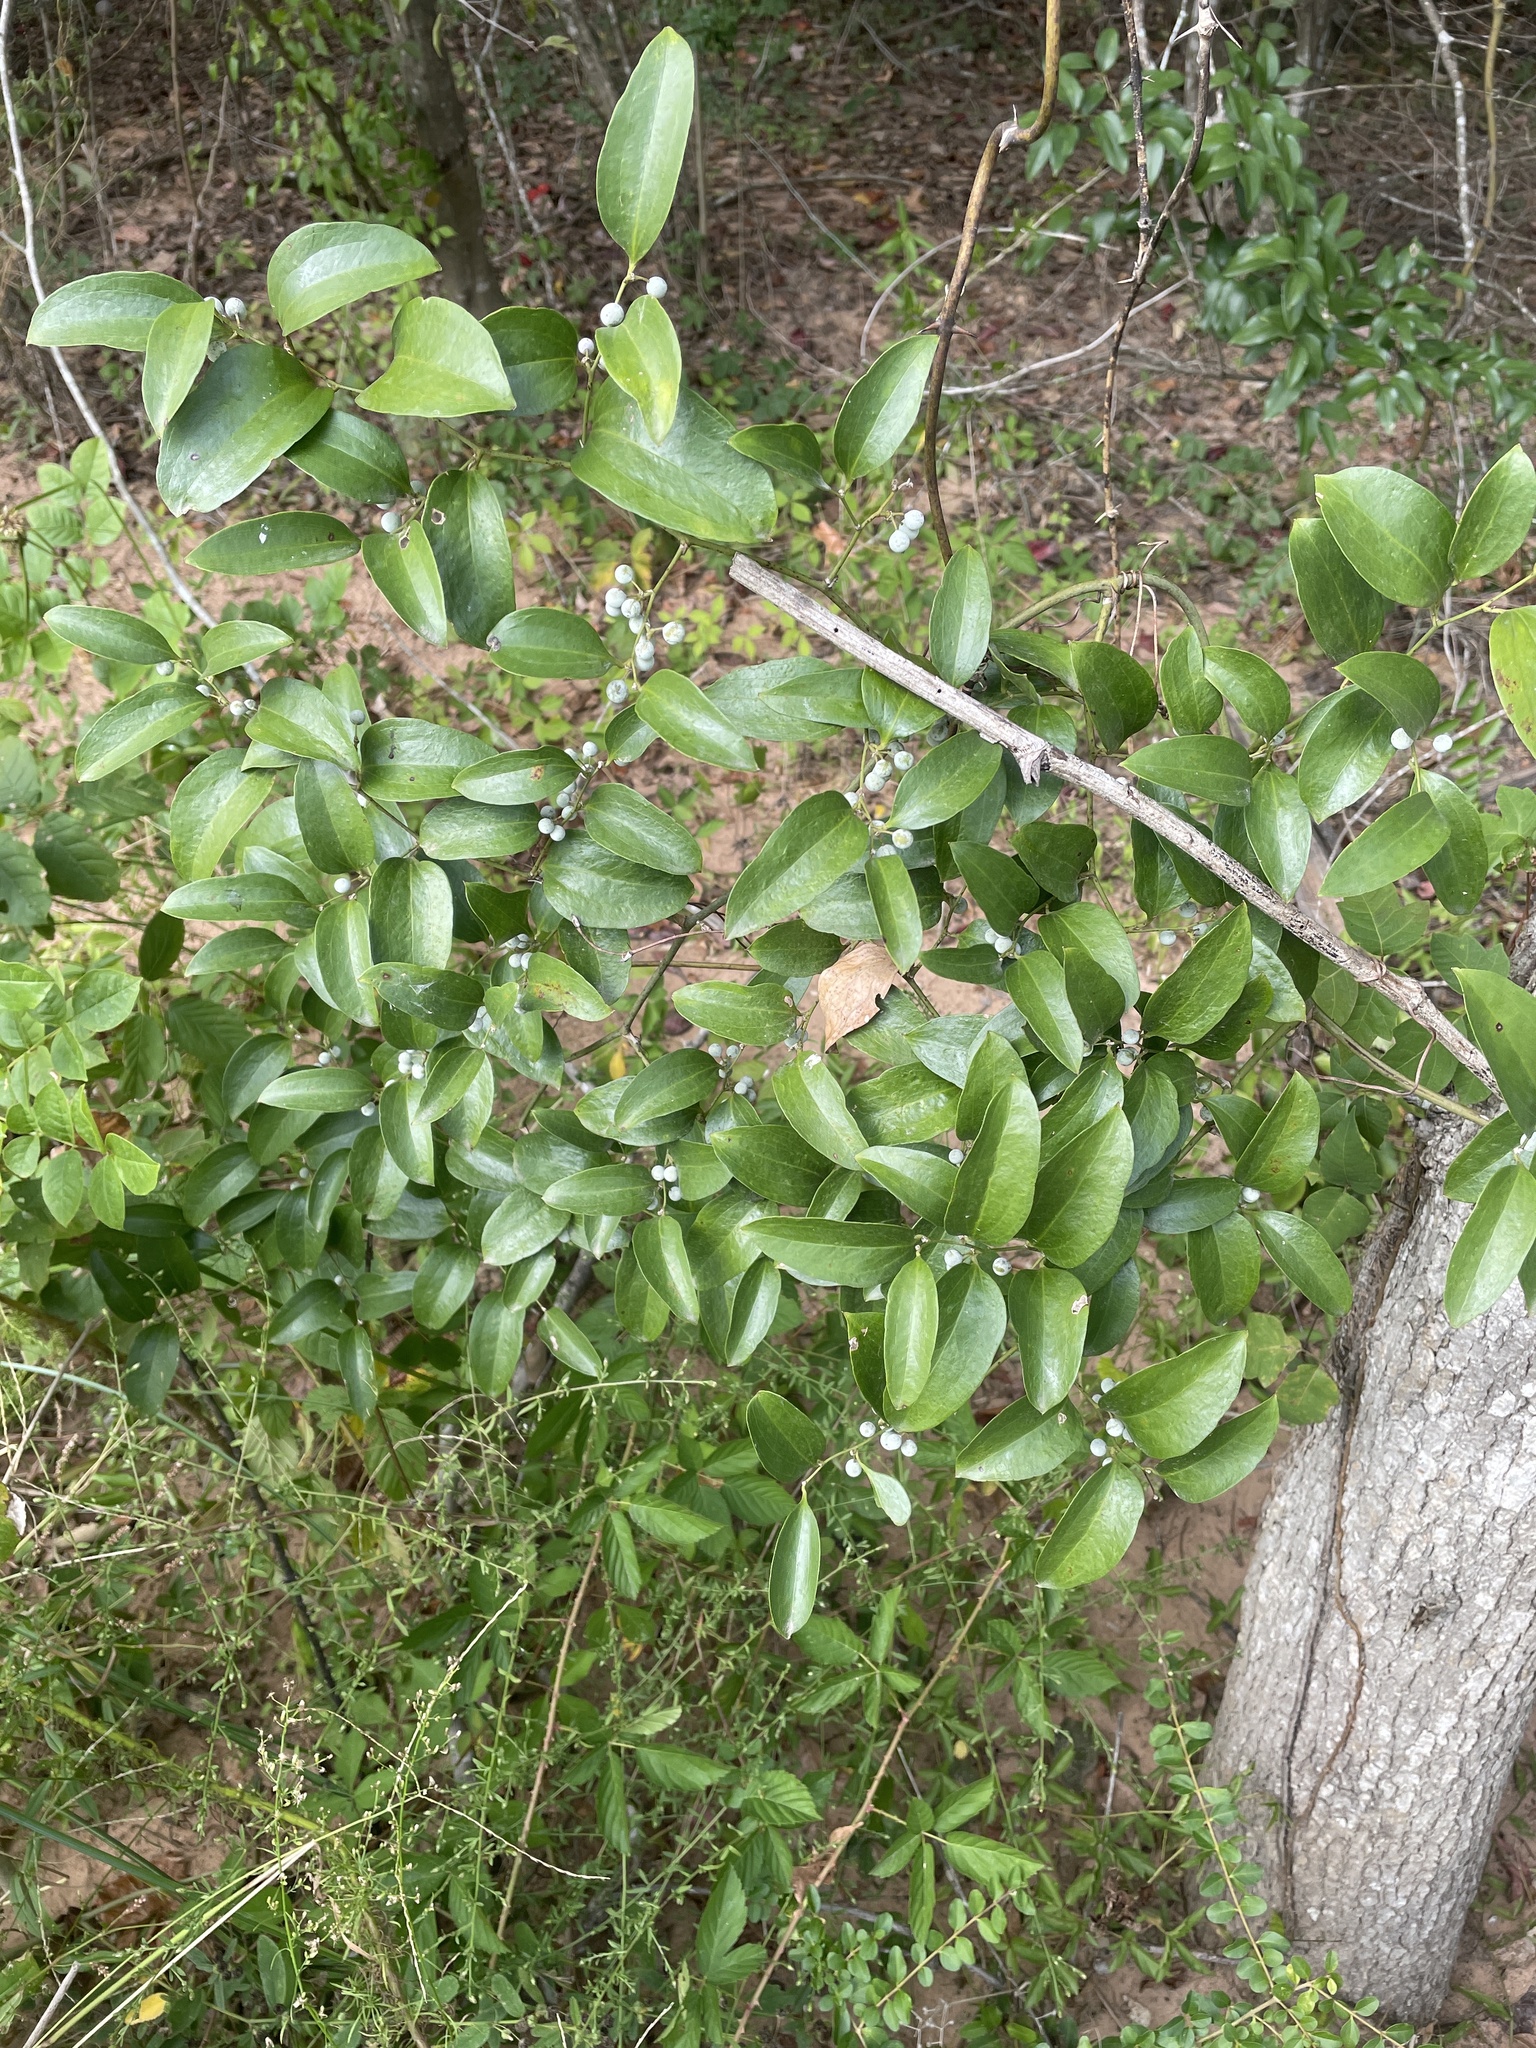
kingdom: Plantae
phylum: Tracheophyta
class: Liliopsida
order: Liliales
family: Smilacaceae
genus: Smilax
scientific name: Smilax laurifolia
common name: Bamboovine
